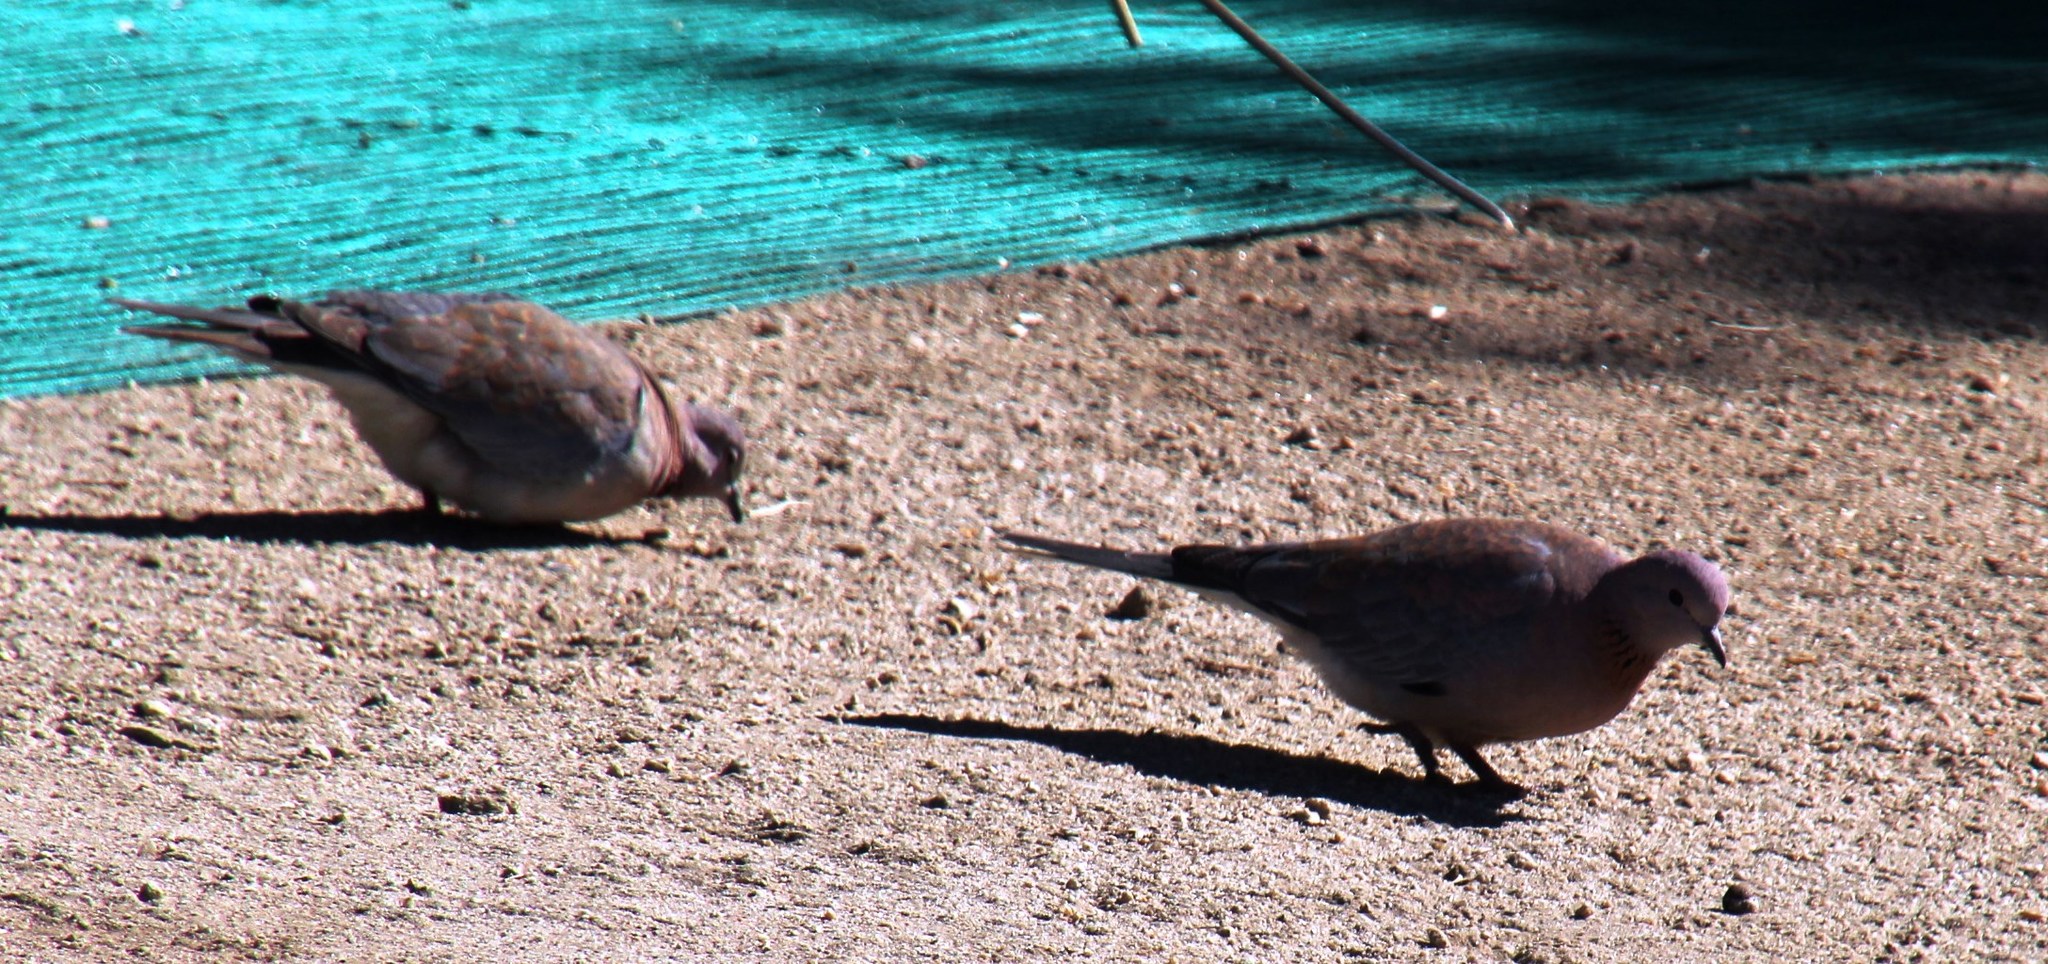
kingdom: Animalia
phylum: Chordata
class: Aves
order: Columbiformes
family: Columbidae
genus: Spilopelia
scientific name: Spilopelia senegalensis
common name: Laughing dove
